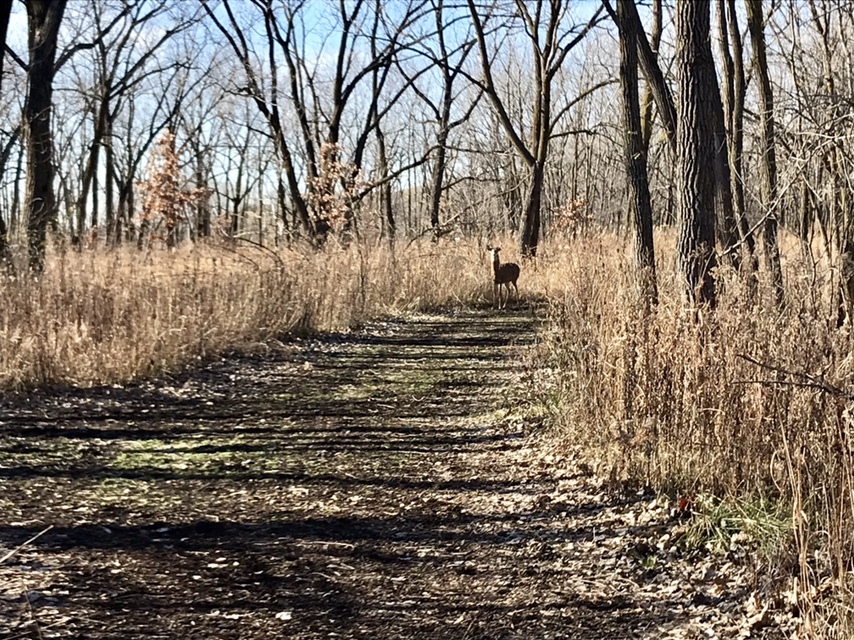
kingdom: Animalia
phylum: Chordata
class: Mammalia
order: Artiodactyla
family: Cervidae
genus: Odocoileus
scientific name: Odocoileus virginianus
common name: White-tailed deer
